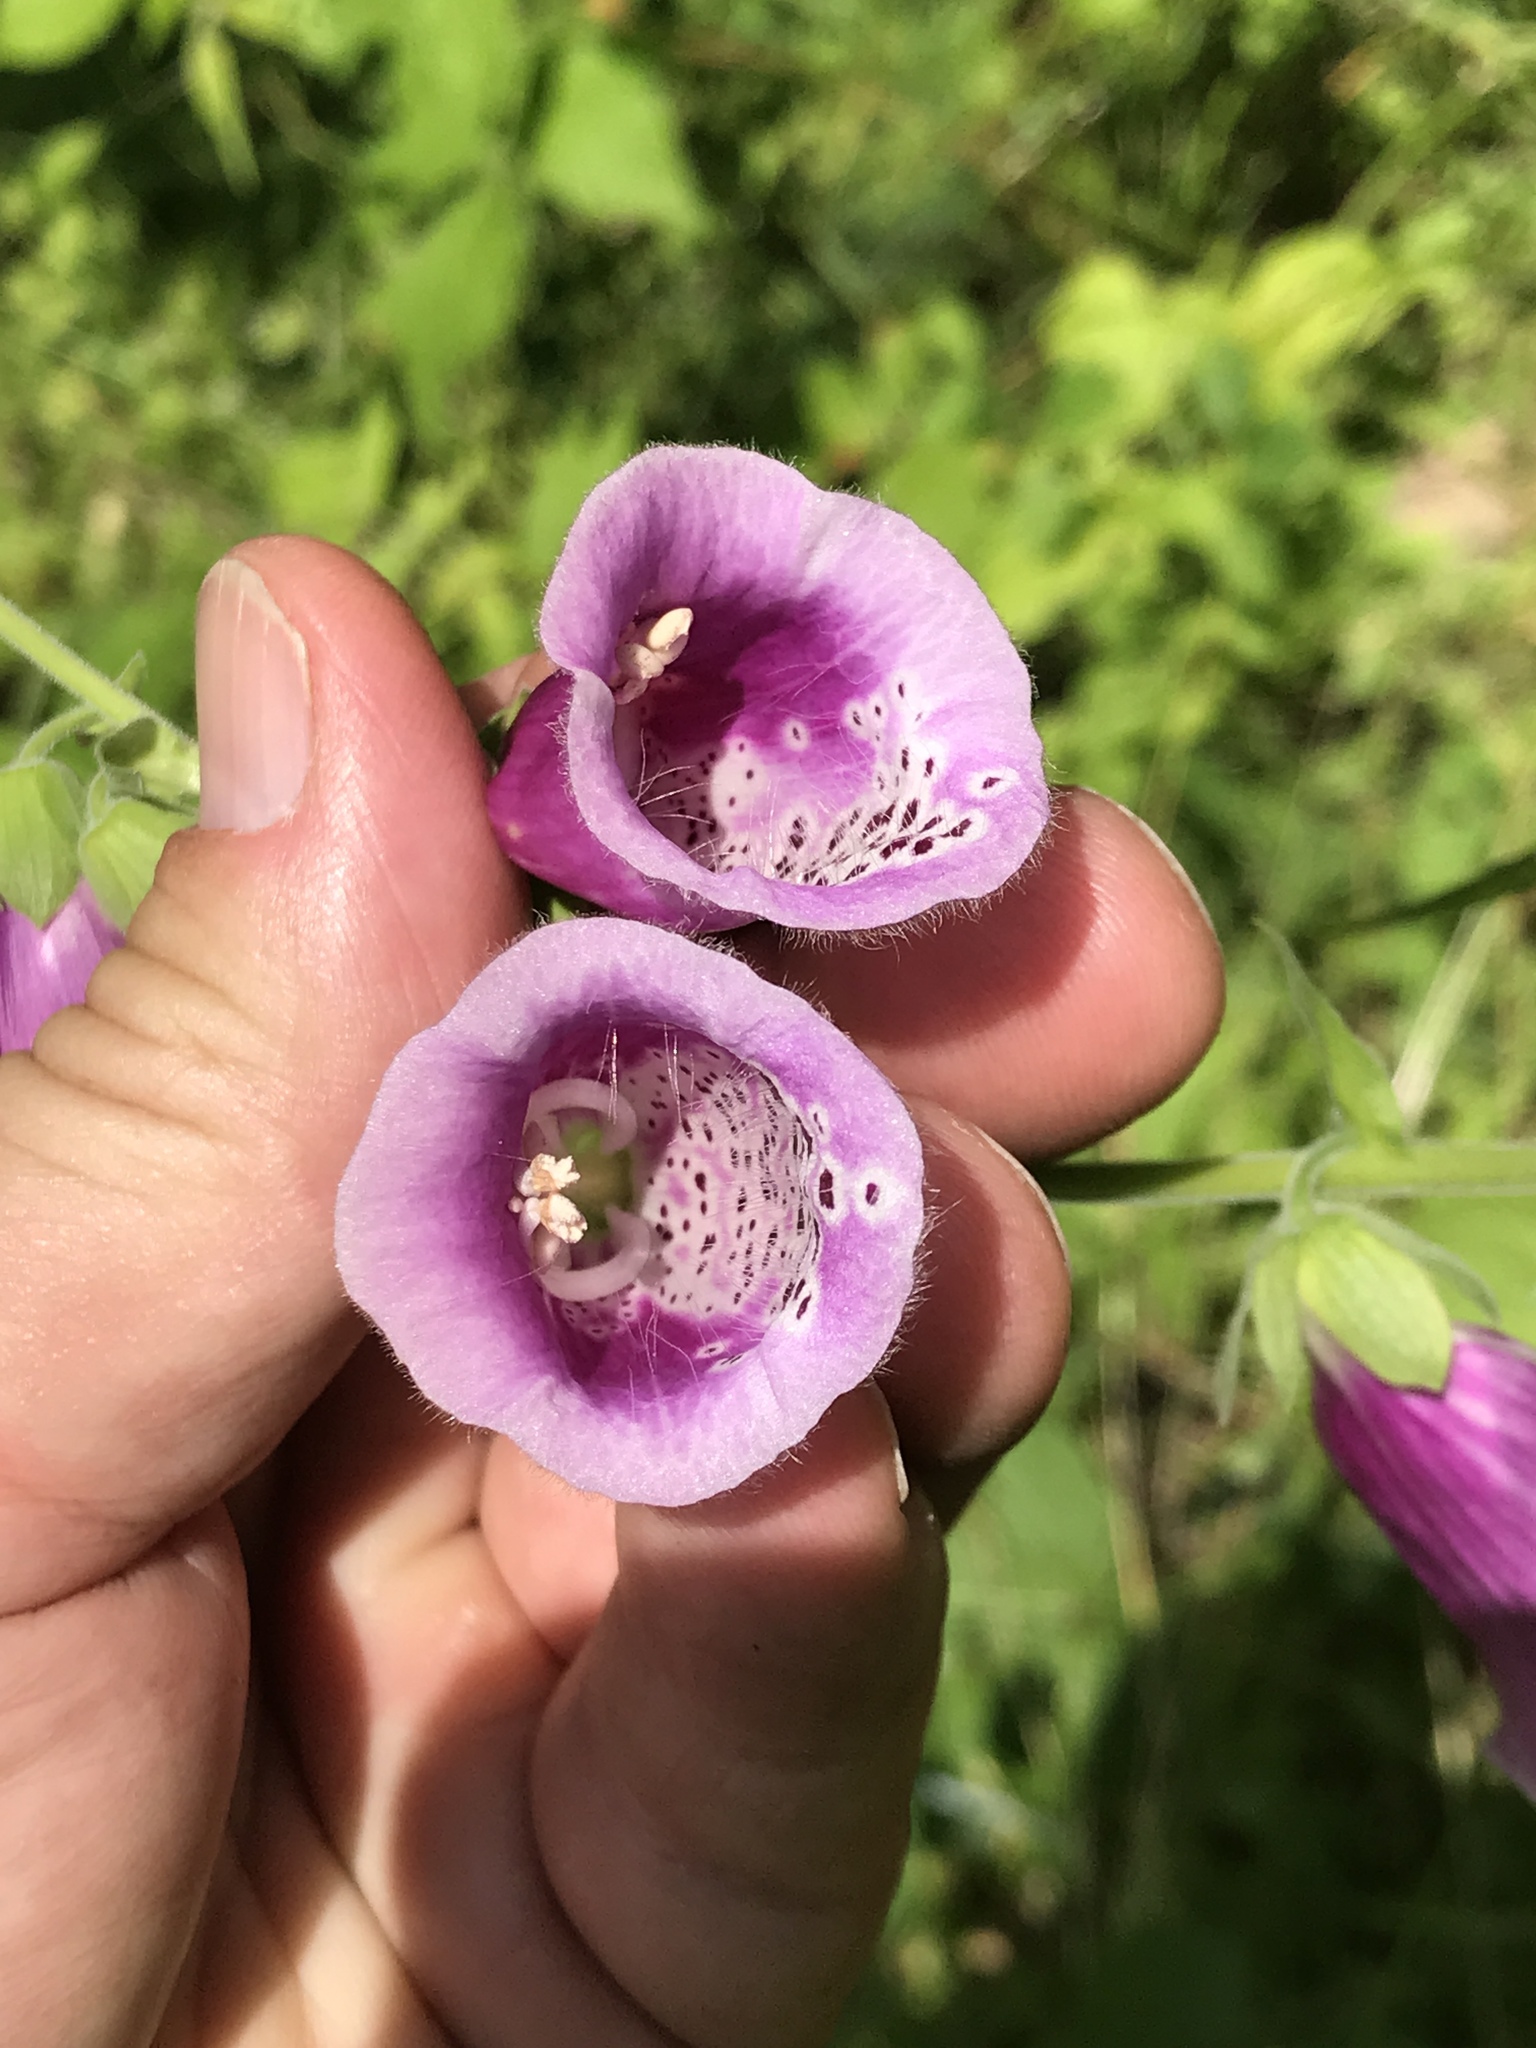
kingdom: Plantae
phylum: Tracheophyta
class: Magnoliopsida
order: Lamiales
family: Plantaginaceae
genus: Digitalis
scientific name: Digitalis purpurea
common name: Foxglove
